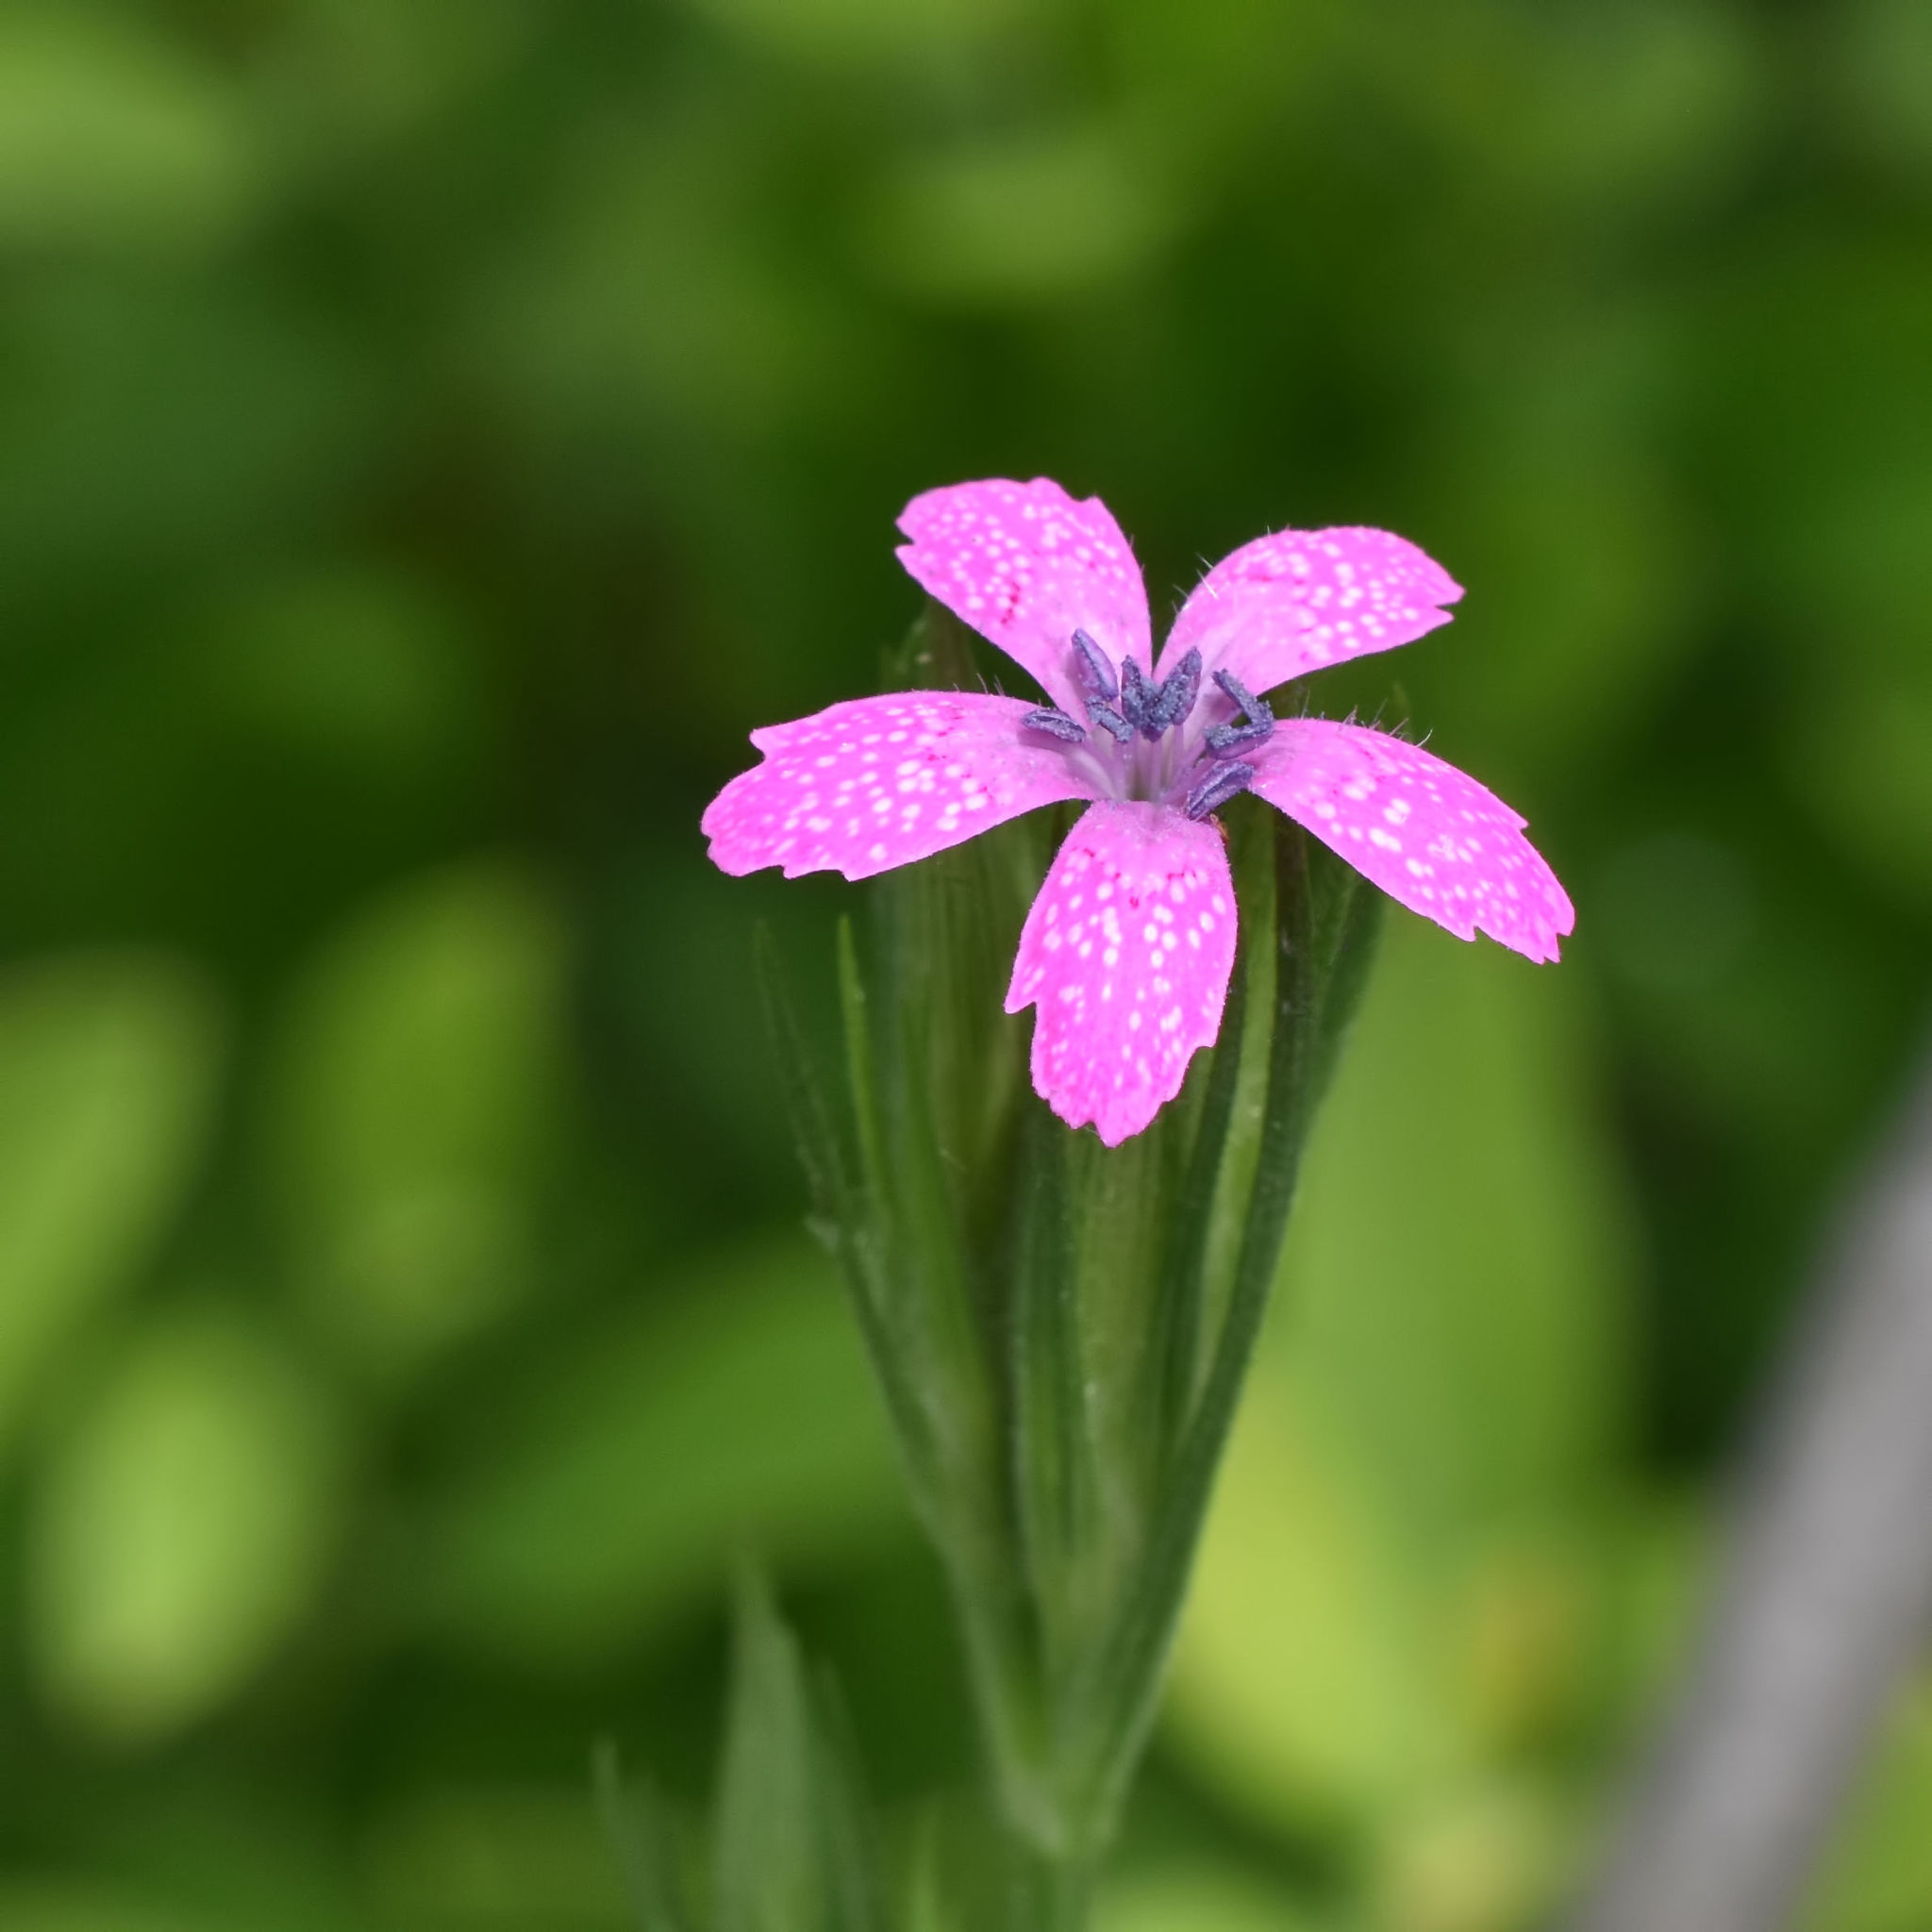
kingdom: Plantae
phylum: Tracheophyta
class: Magnoliopsida
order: Caryophyllales
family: Caryophyllaceae
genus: Dianthus
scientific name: Dianthus armeria
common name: Deptford pink
